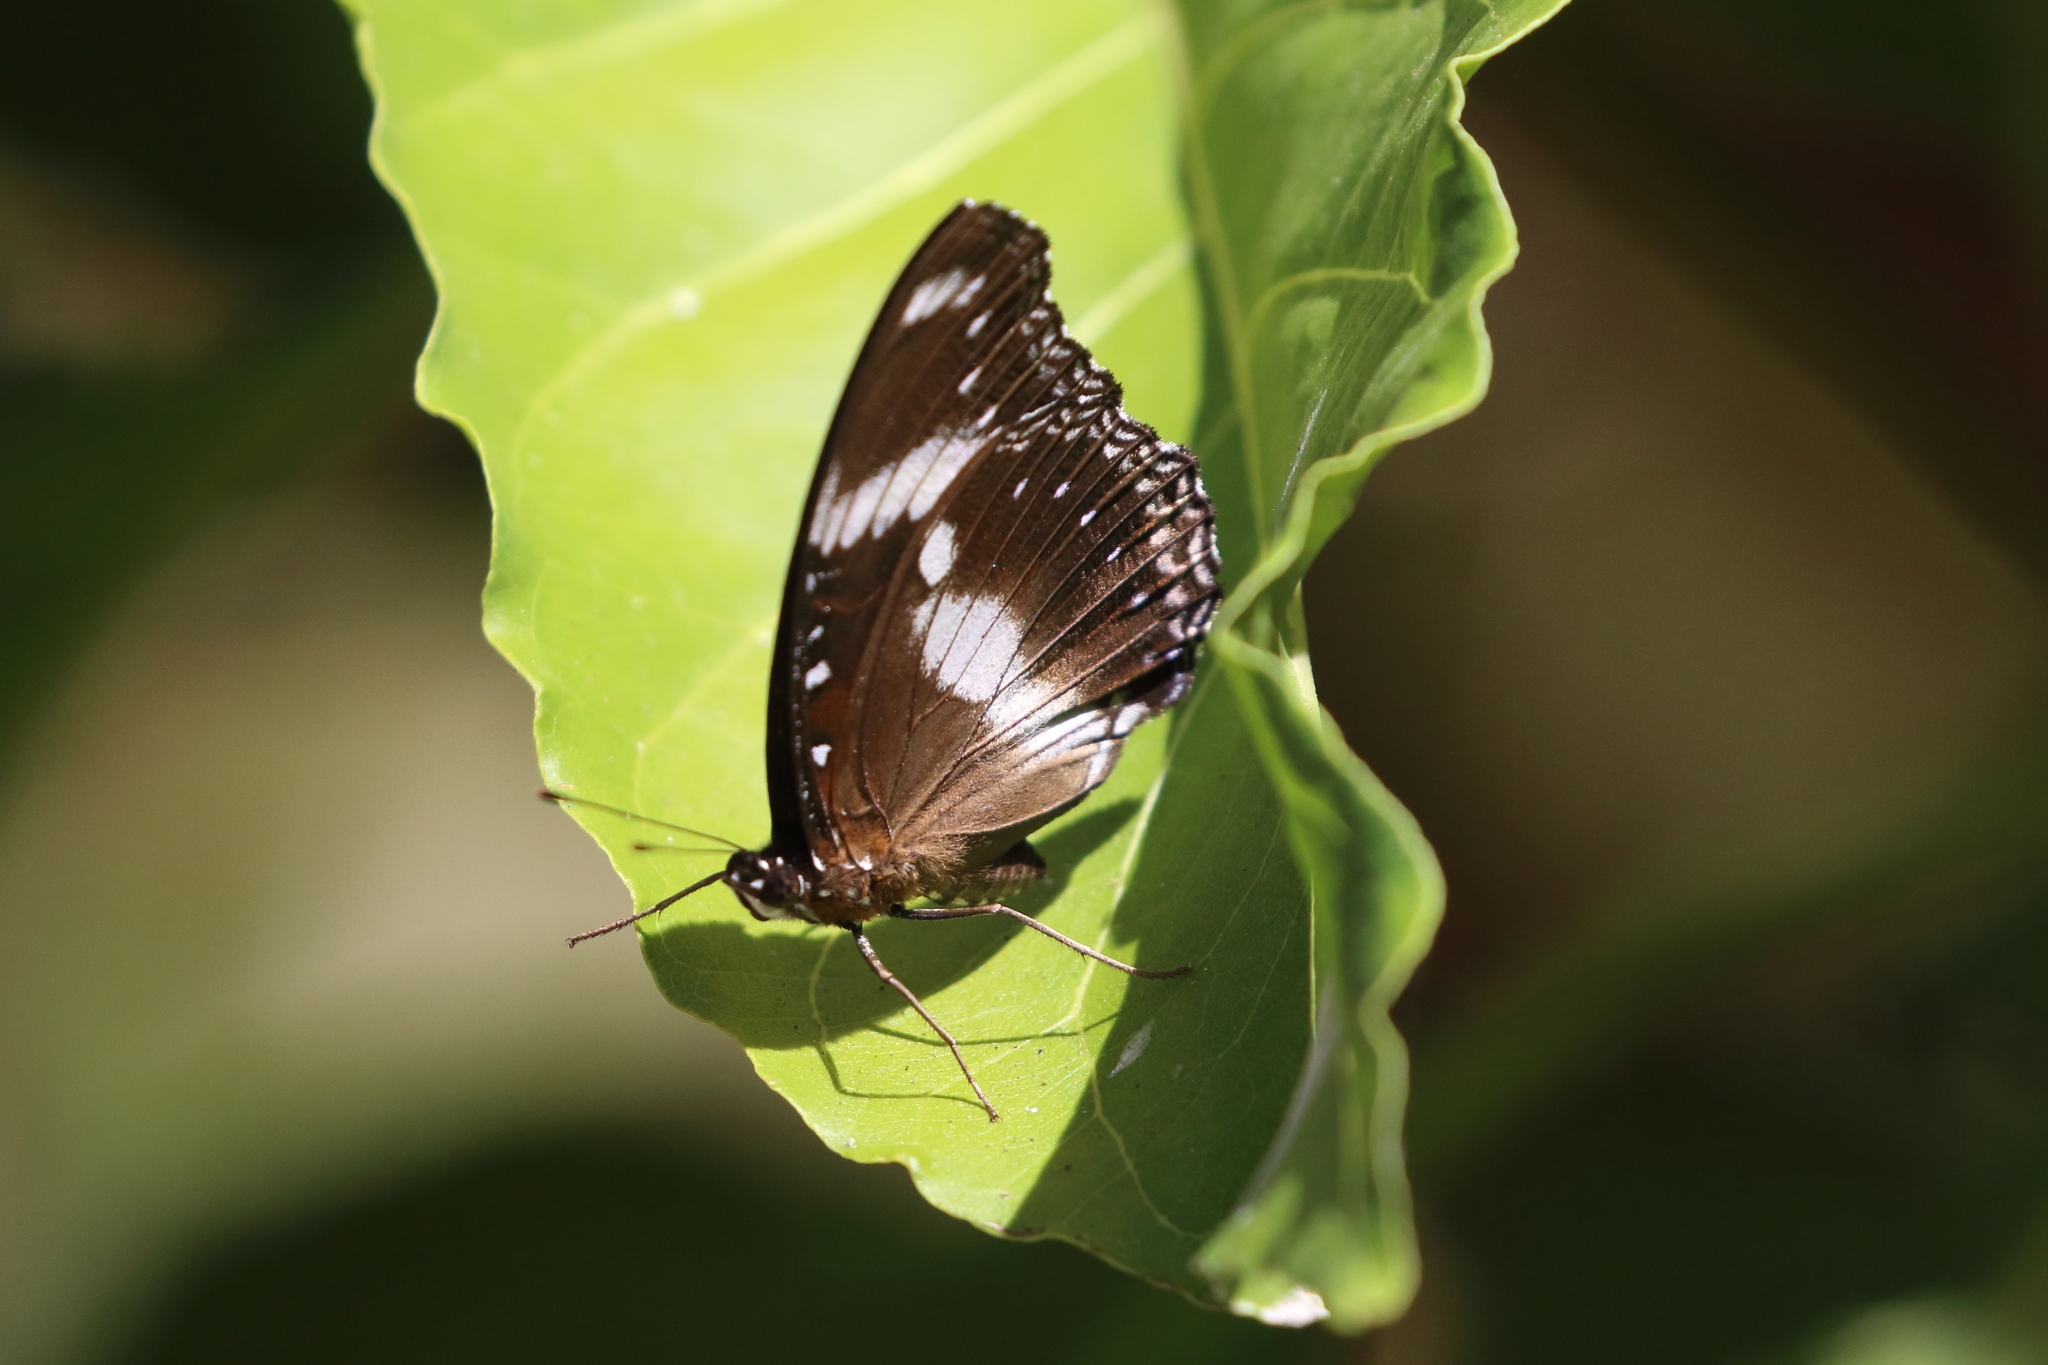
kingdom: Animalia
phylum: Arthropoda
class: Insecta
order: Lepidoptera
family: Nymphalidae
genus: Hypolimnas
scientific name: Hypolimnas bolina
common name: Great eggfly
